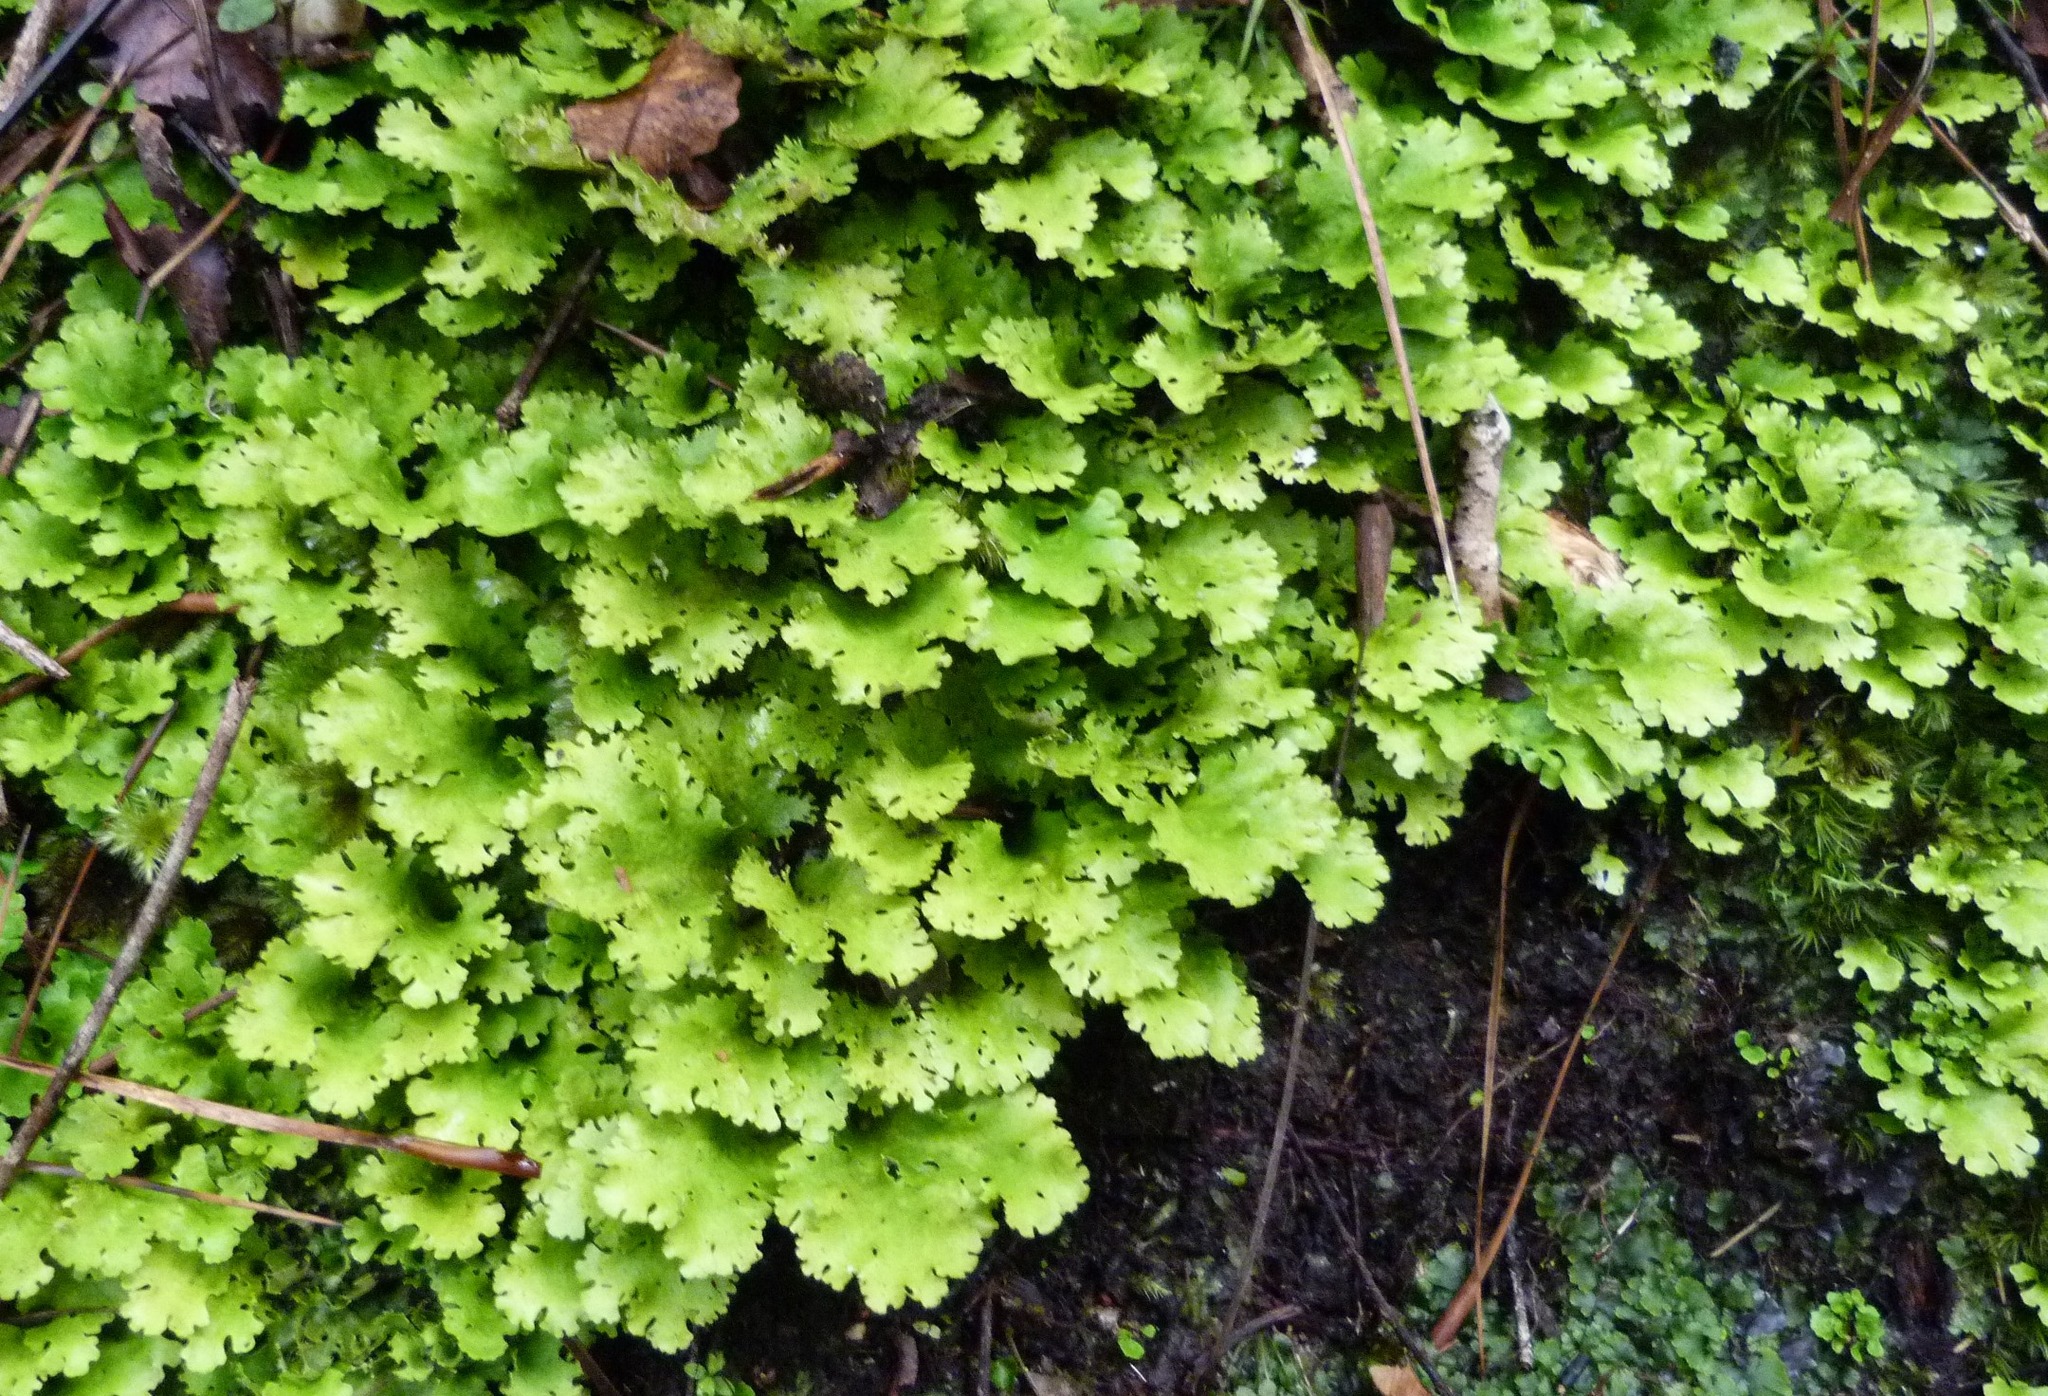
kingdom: Fungi
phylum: Ascomycota
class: Lecanoromycetes
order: Peltigerales
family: Lobariaceae
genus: Sticta
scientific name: Sticta filix
